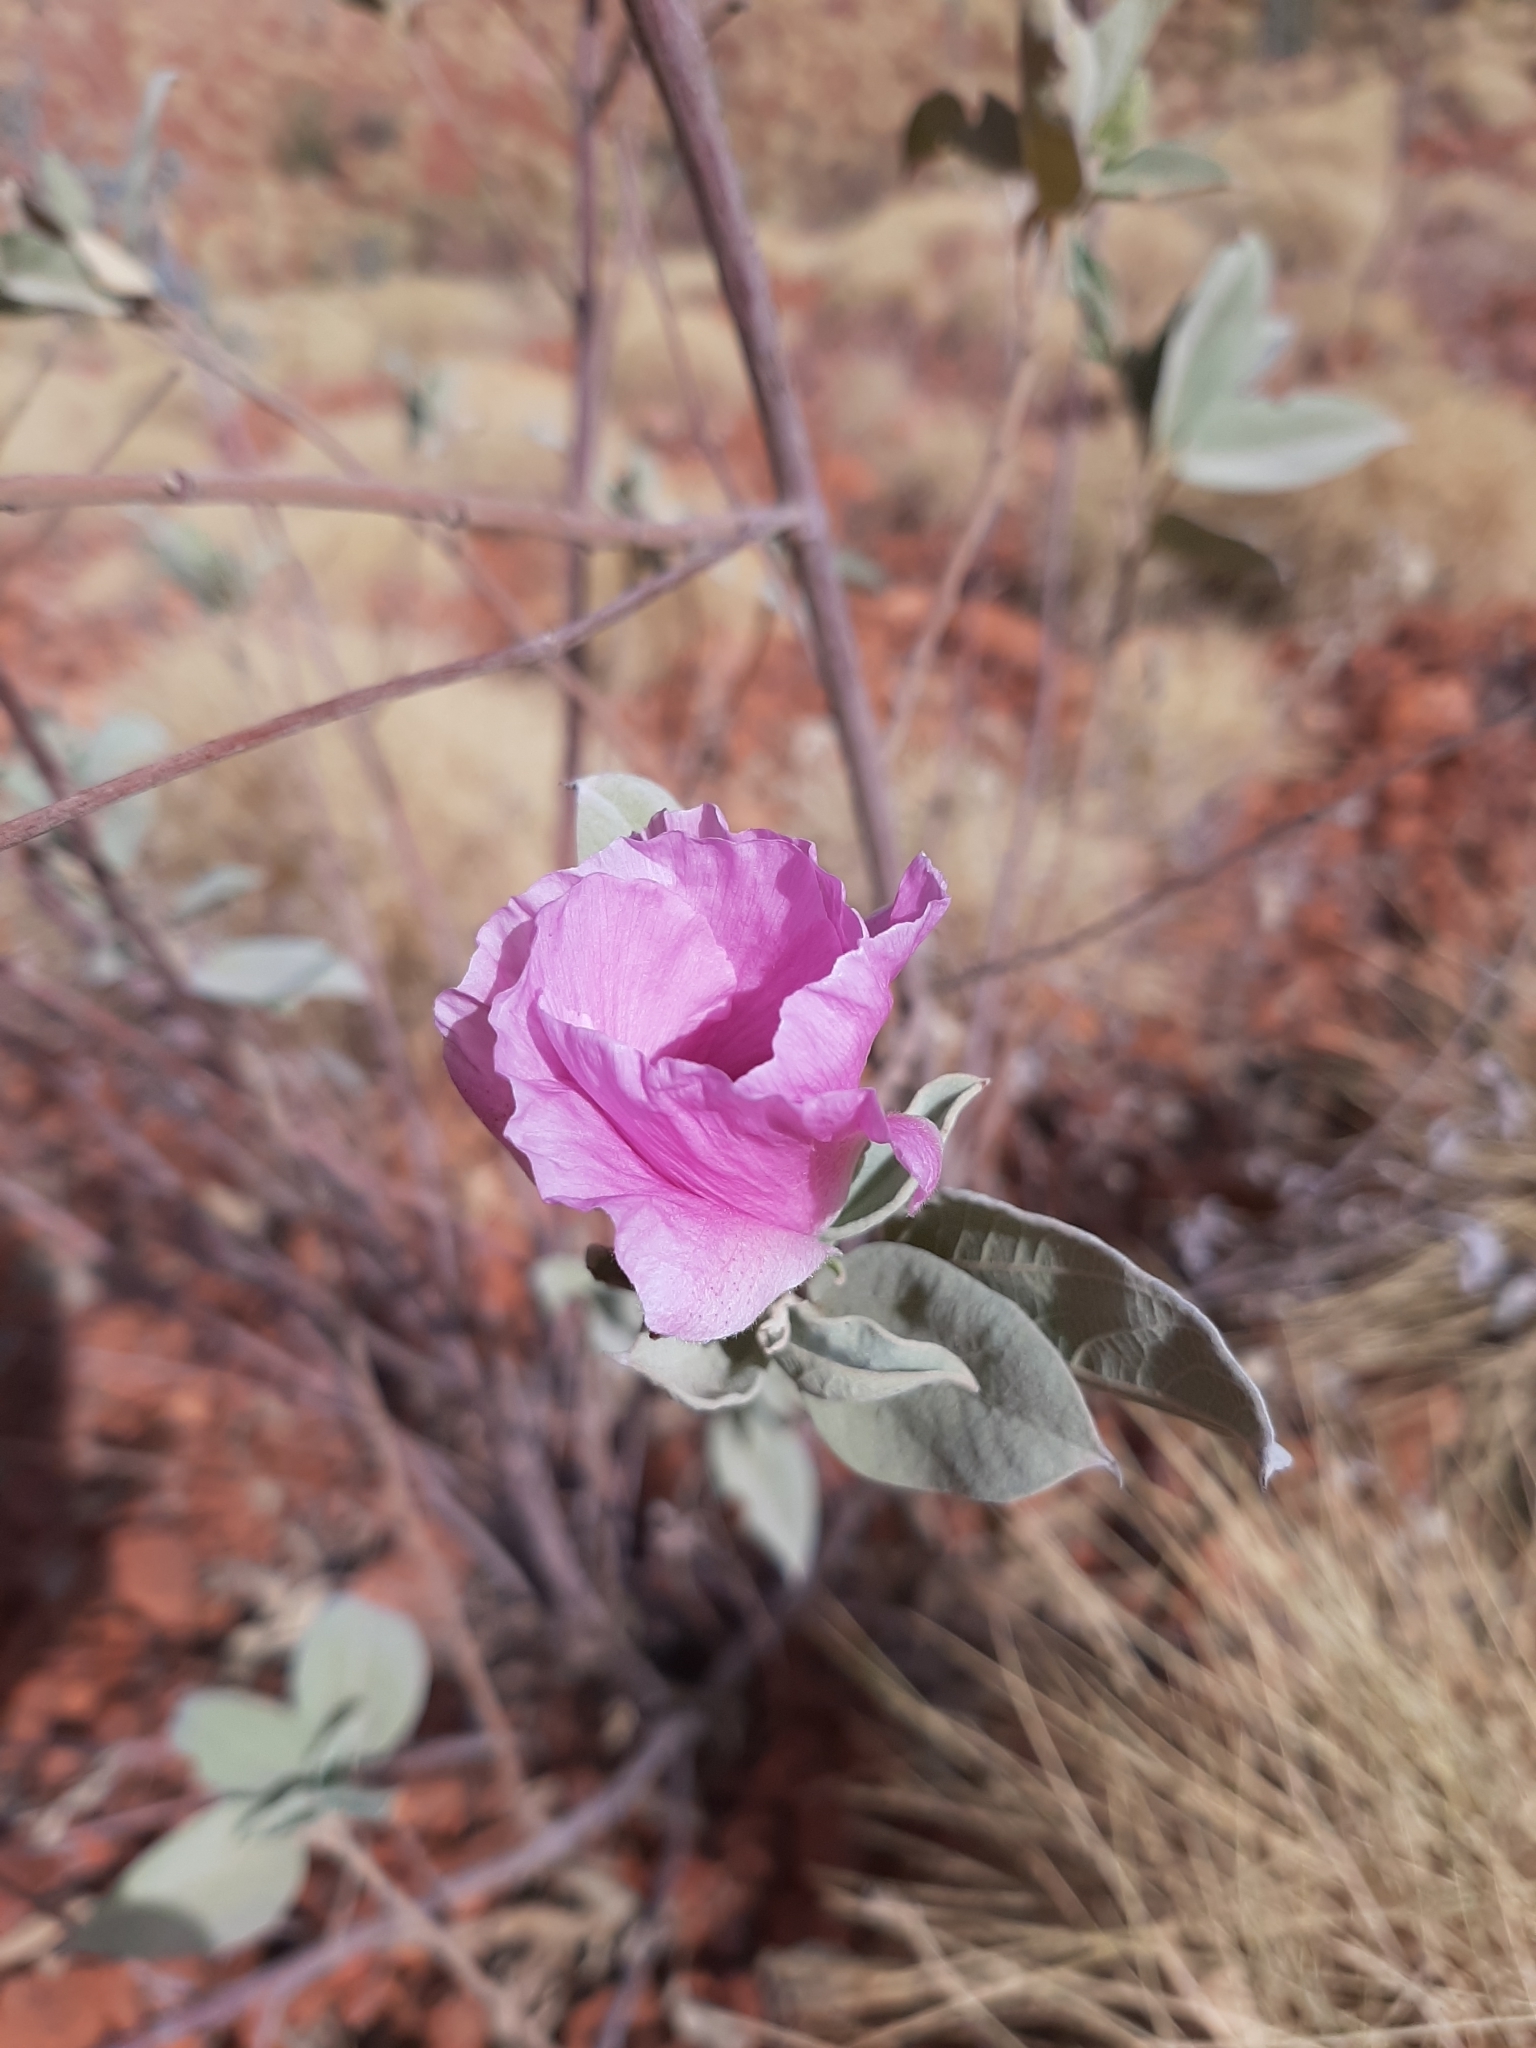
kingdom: Plantae
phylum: Tracheophyta
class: Magnoliopsida
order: Malvales
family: Malvaceae
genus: Cienfuegosia
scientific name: Cienfuegosia australis
